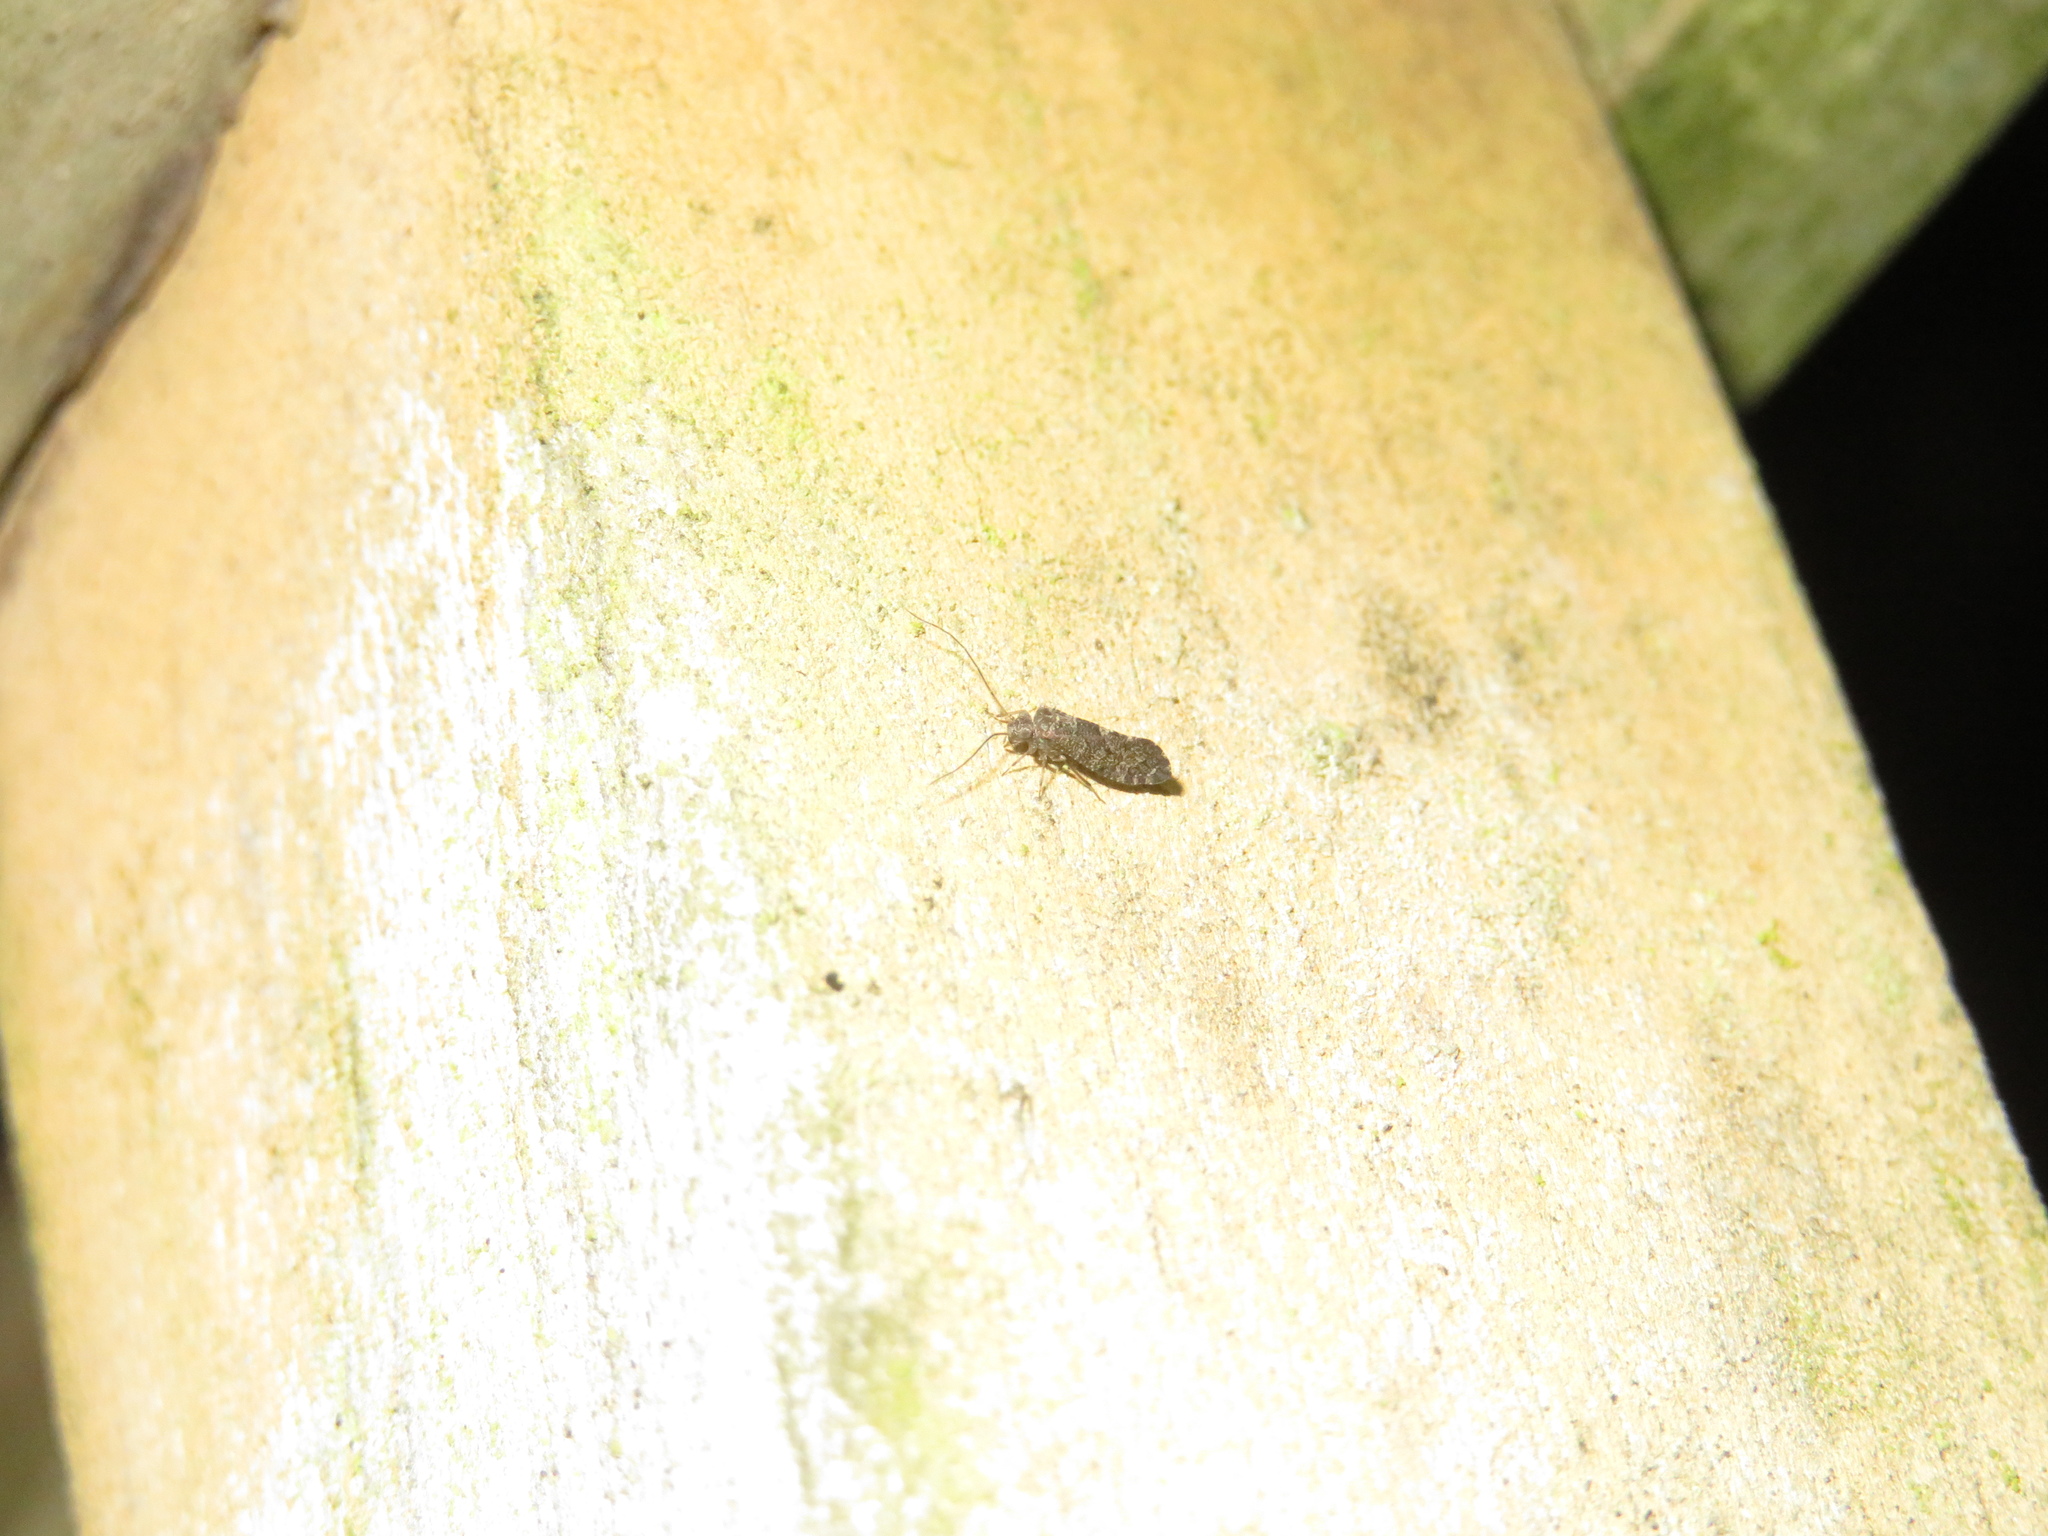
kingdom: Animalia
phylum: Arthropoda
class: Insecta
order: Psocodea
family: Myopsocidae
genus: Nimbopsocus
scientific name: Nimbopsocus australis
